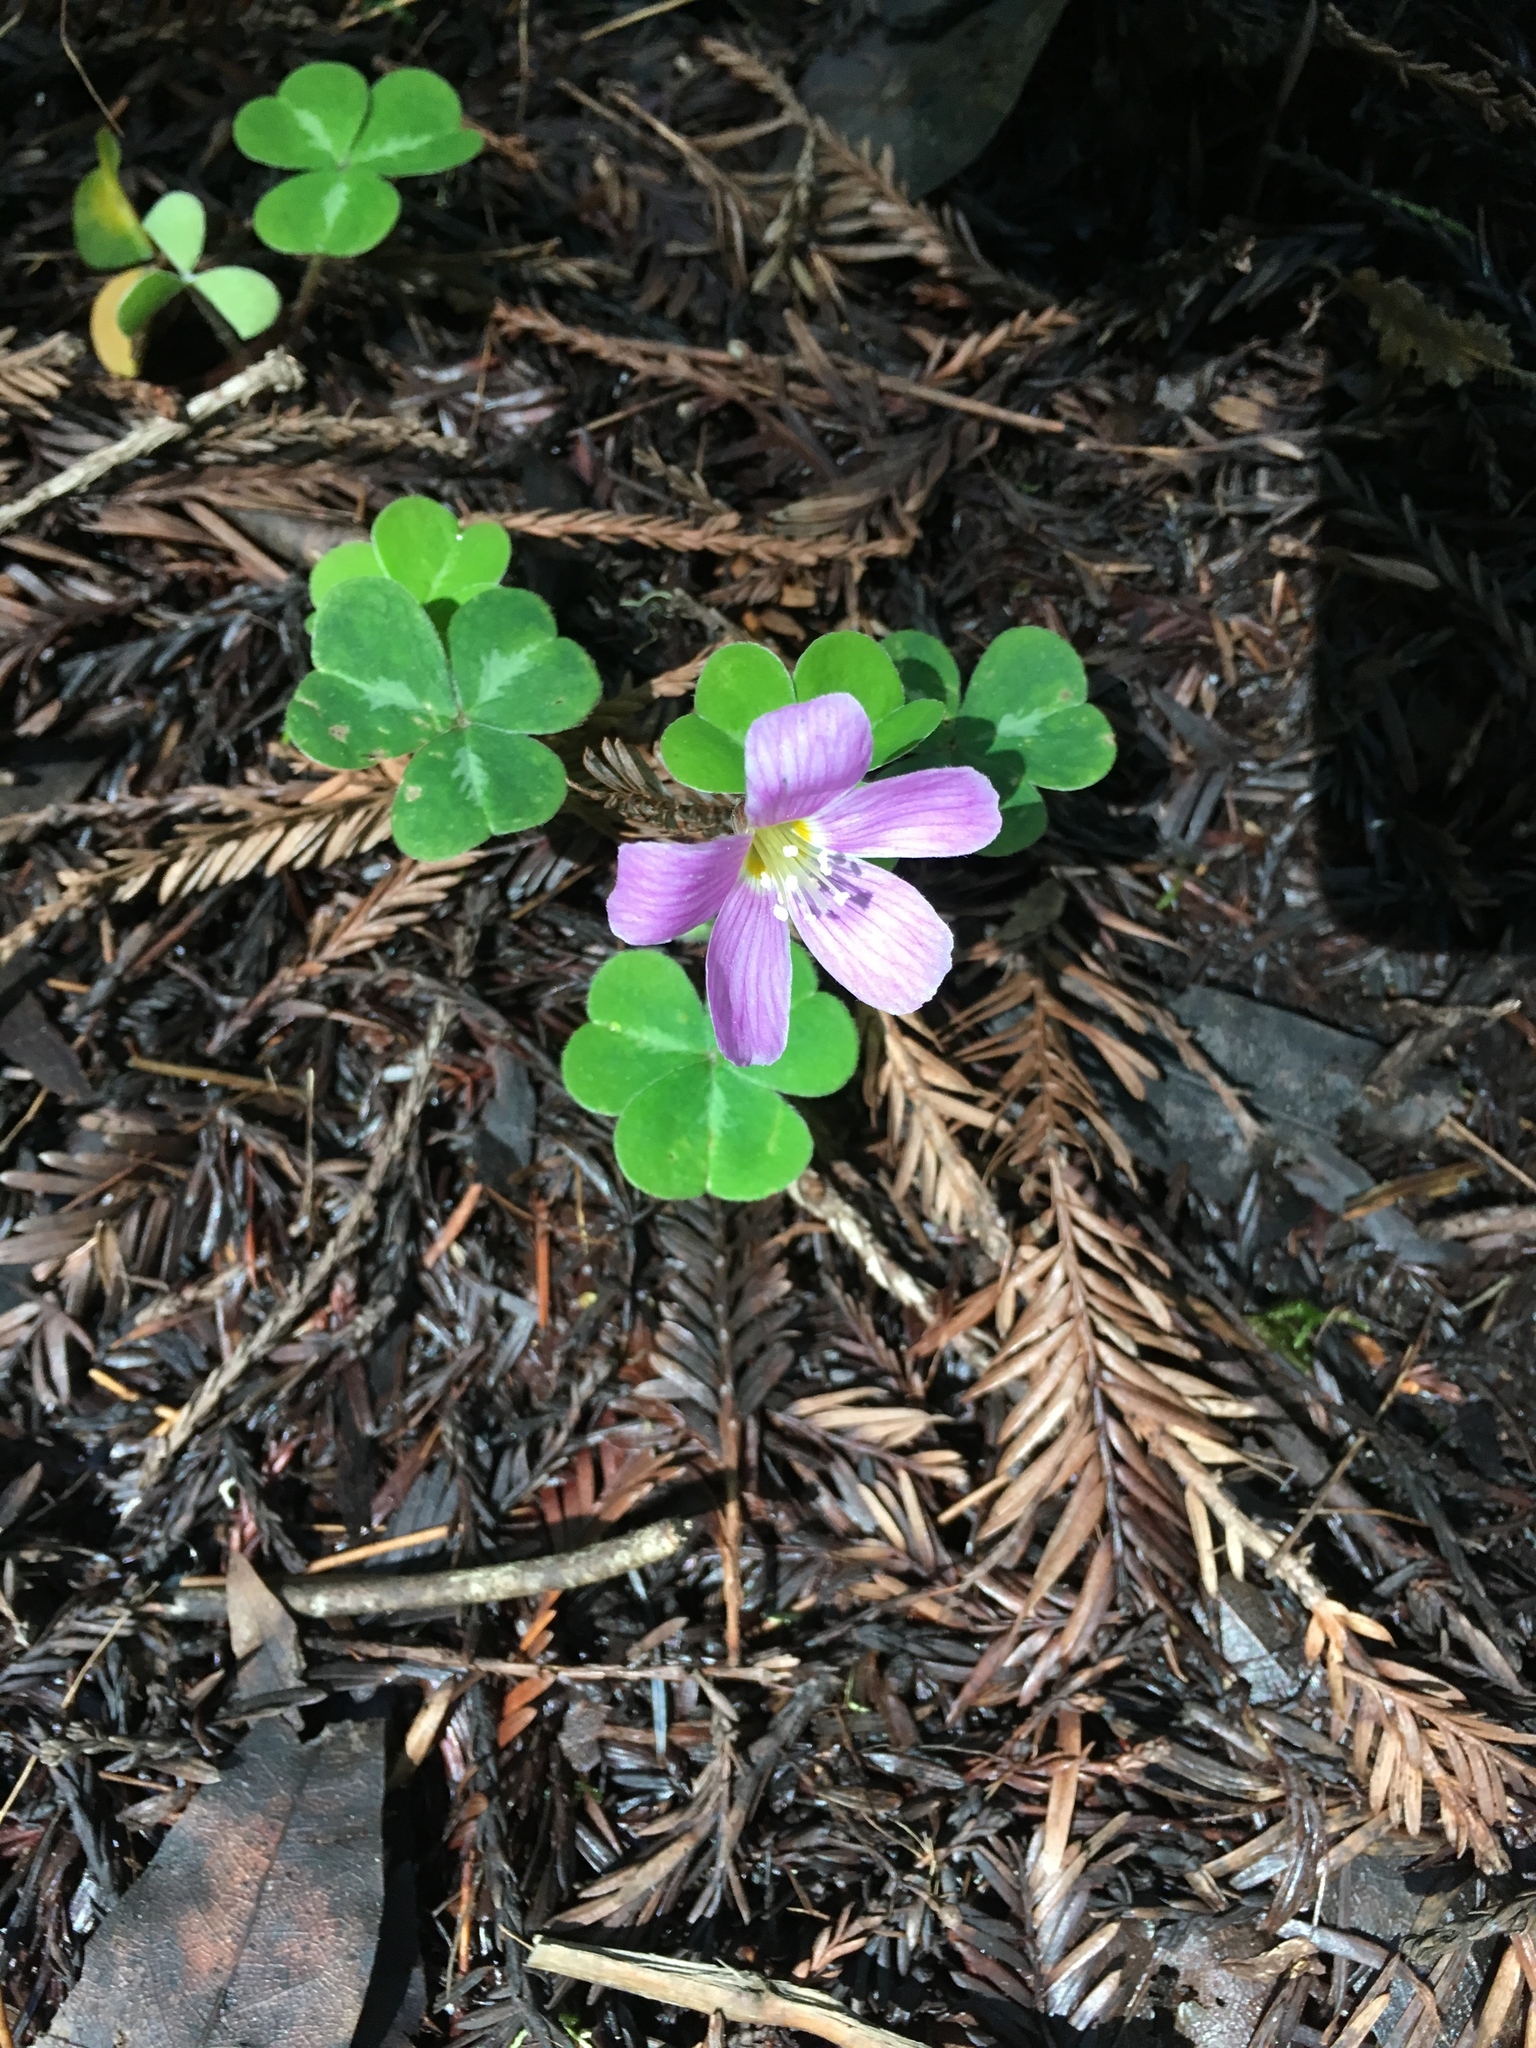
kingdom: Plantae
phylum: Tracheophyta
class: Magnoliopsida
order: Oxalidales
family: Oxalidaceae
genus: Oxalis
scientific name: Oxalis oregana
